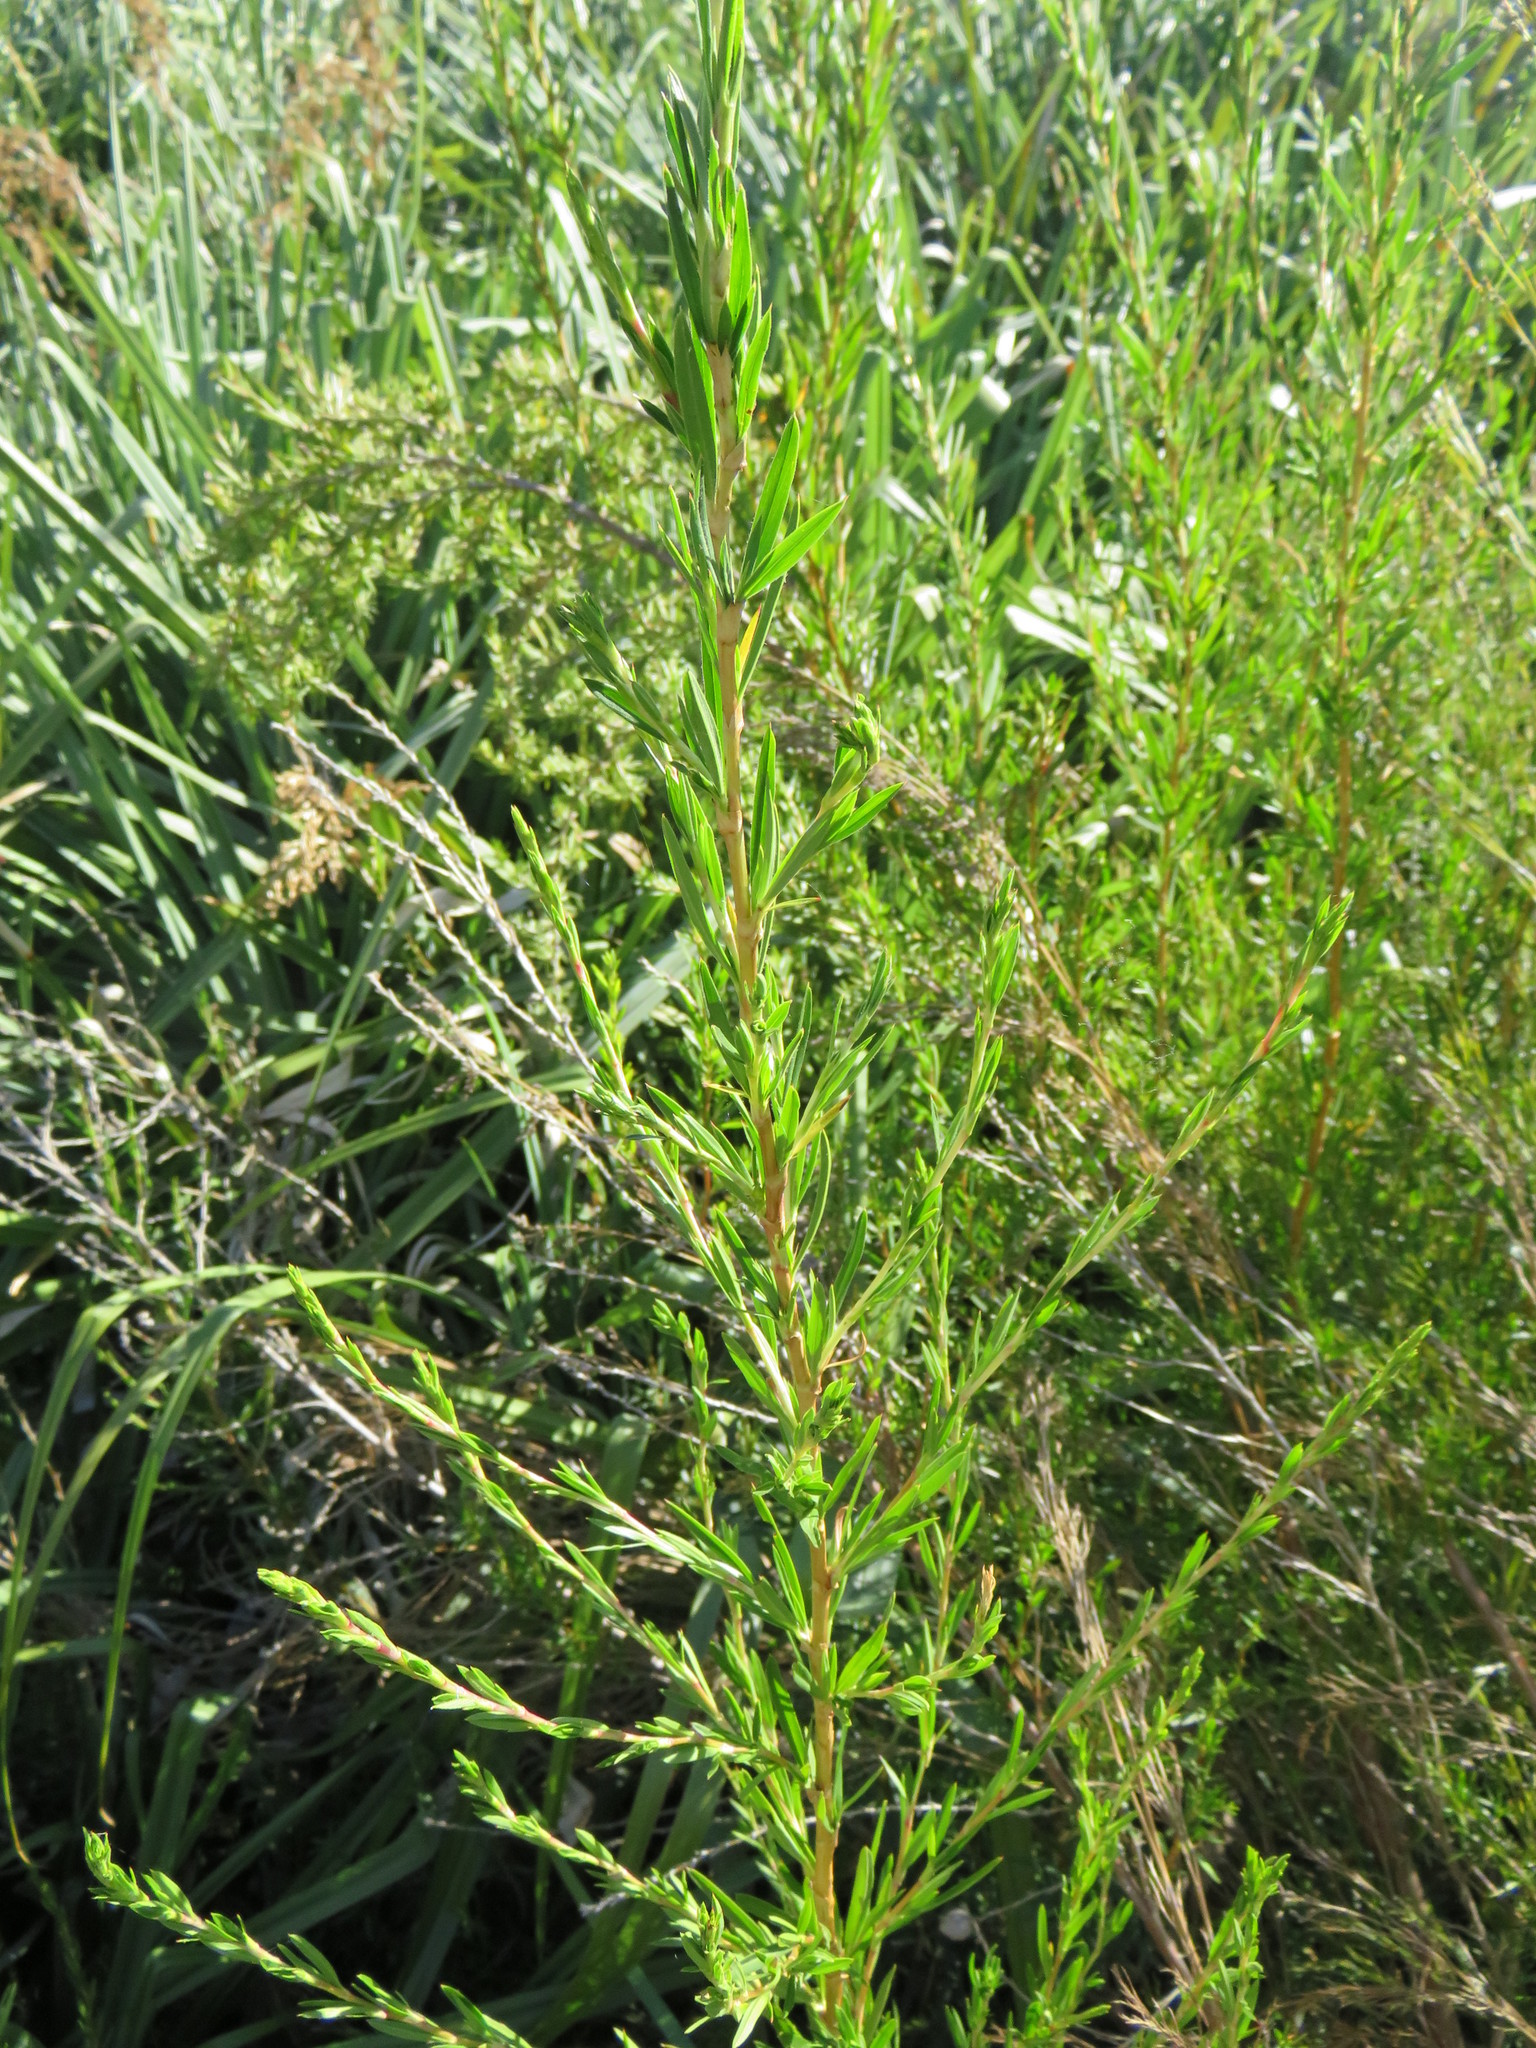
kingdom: Plantae
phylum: Tracheophyta
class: Magnoliopsida
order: Rosales
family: Rosaceae
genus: Cliffortia
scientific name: Cliffortia strobilifera
